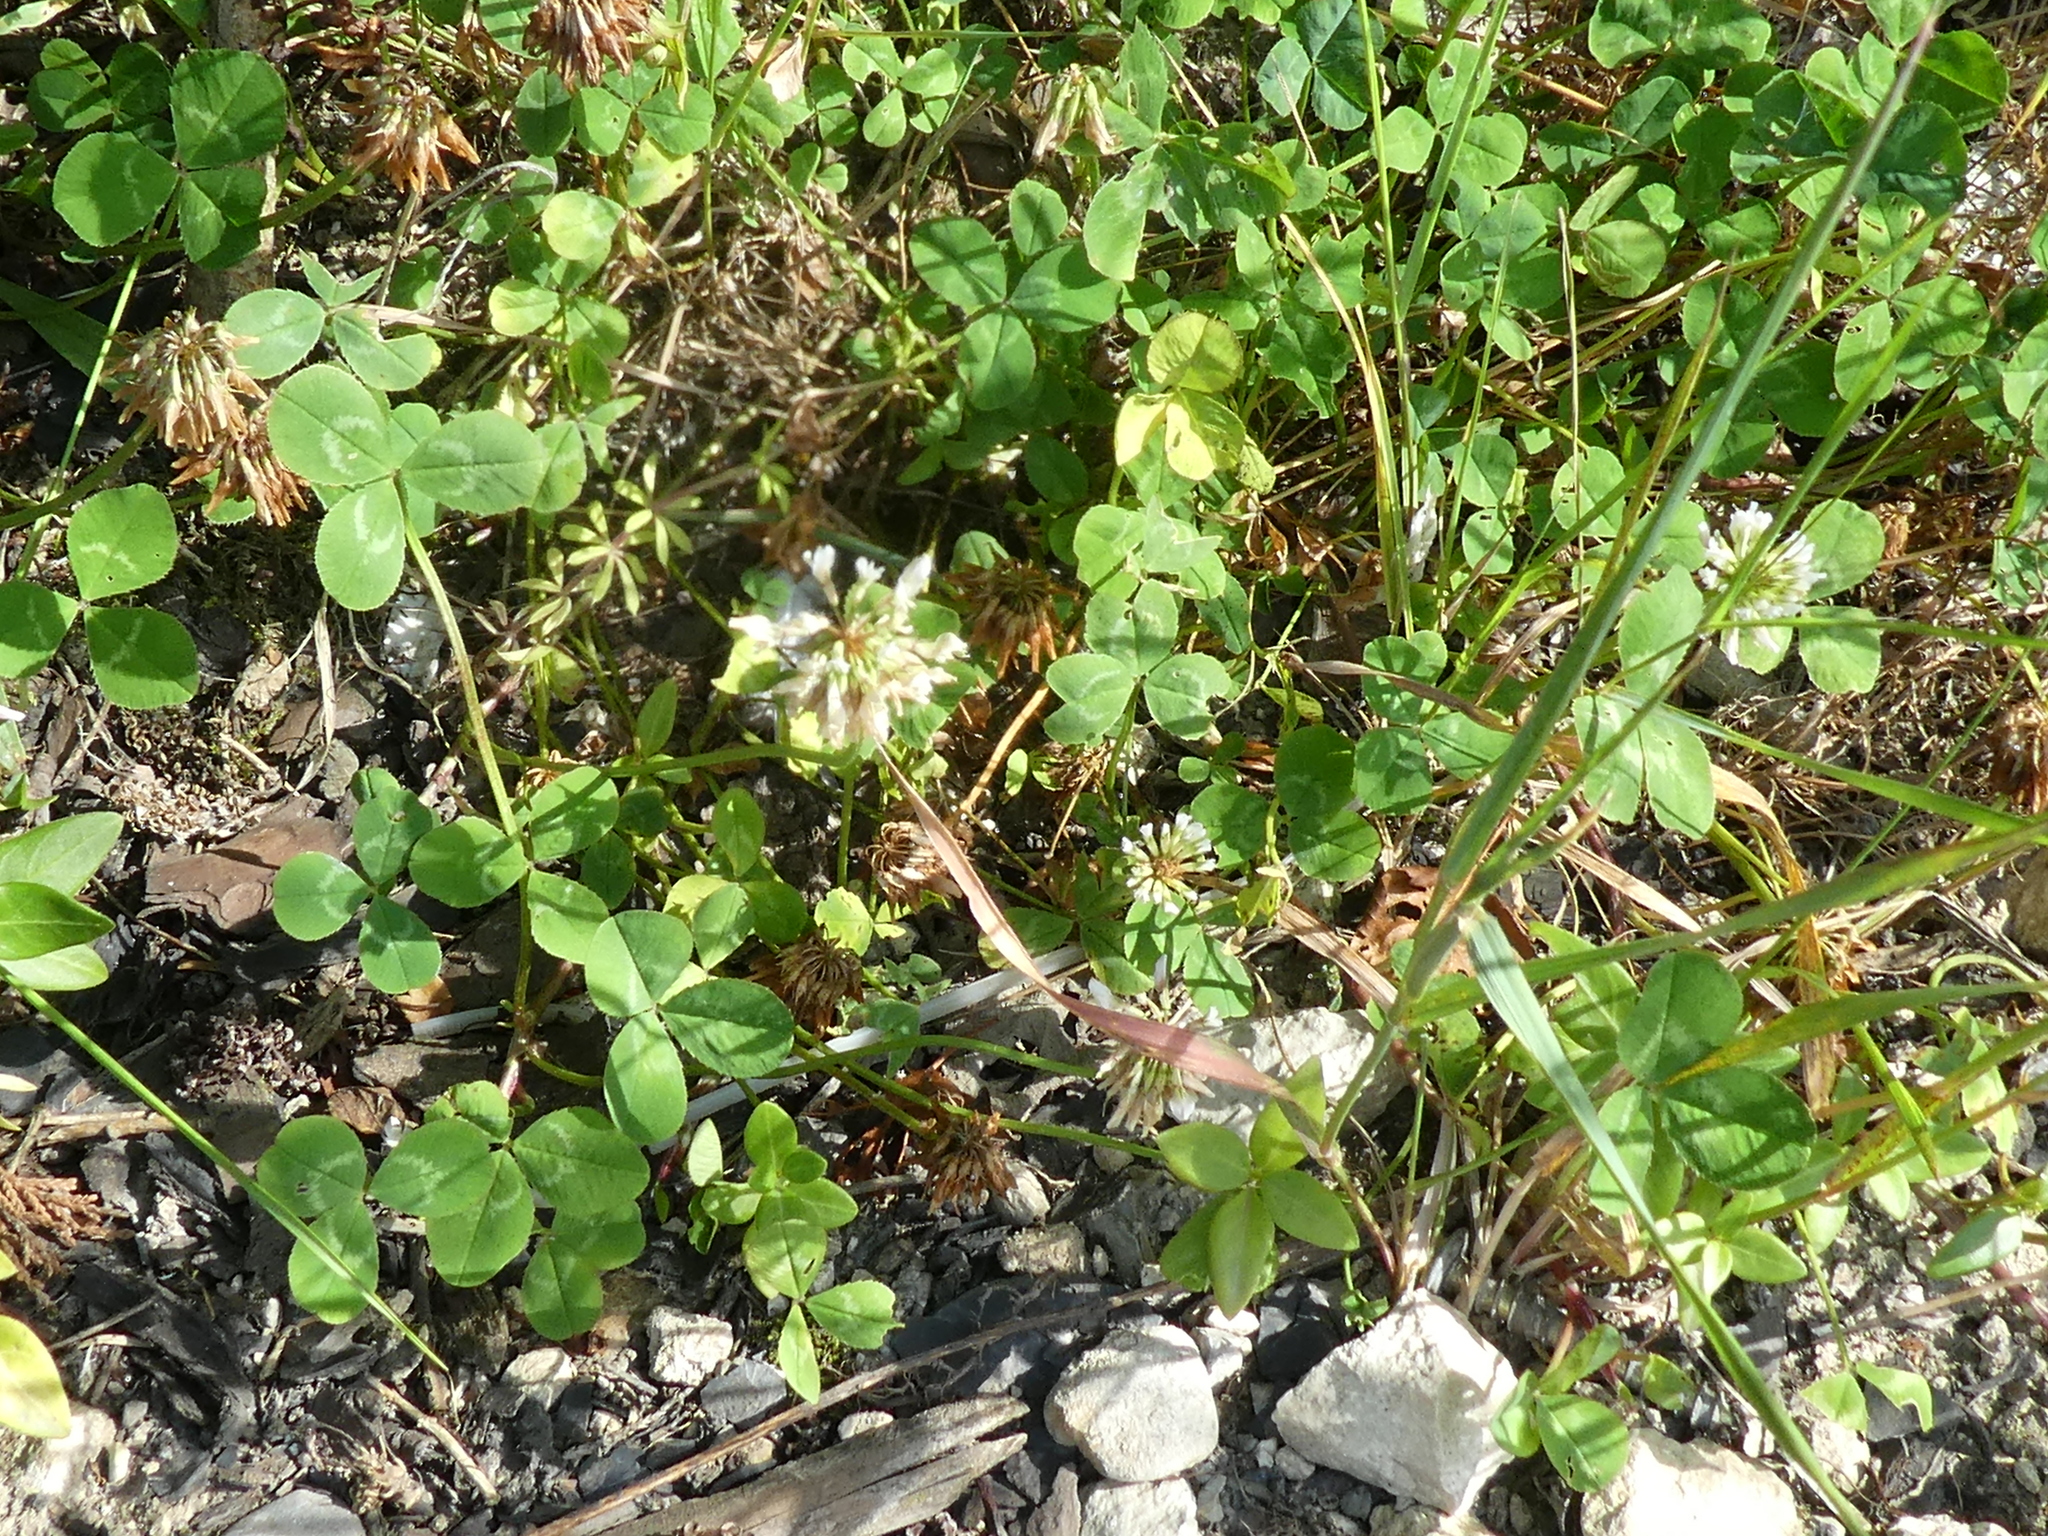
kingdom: Plantae
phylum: Tracheophyta
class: Magnoliopsida
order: Fabales
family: Fabaceae
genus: Trifolium
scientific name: Trifolium repens
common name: White clover
